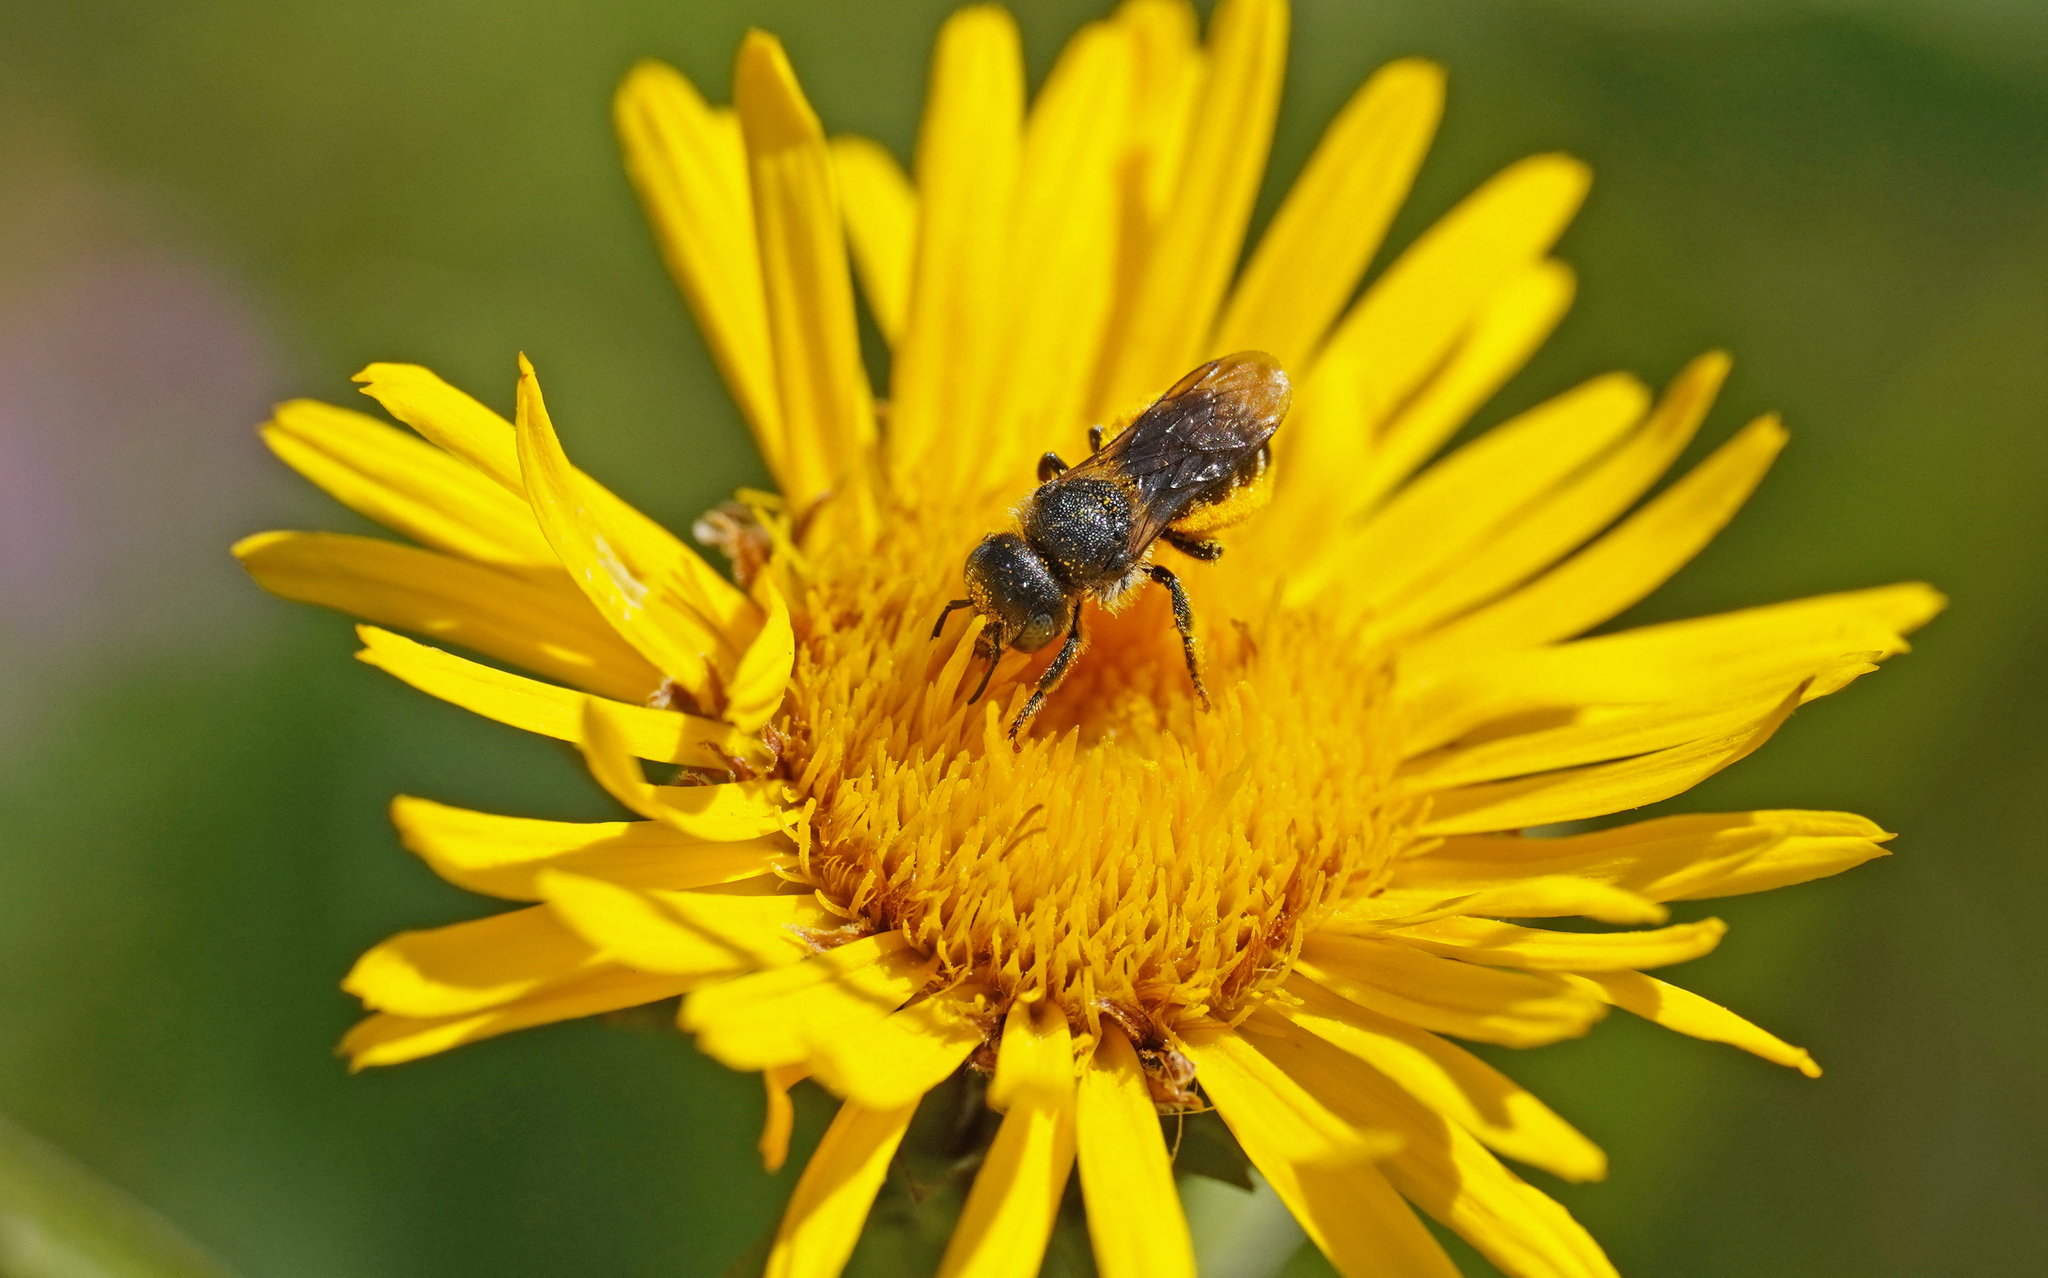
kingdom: Animalia
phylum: Arthropoda
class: Insecta
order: Hymenoptera
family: Megachilidae
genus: Osmia
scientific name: Osmia spinulosa
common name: Spined mason bee
